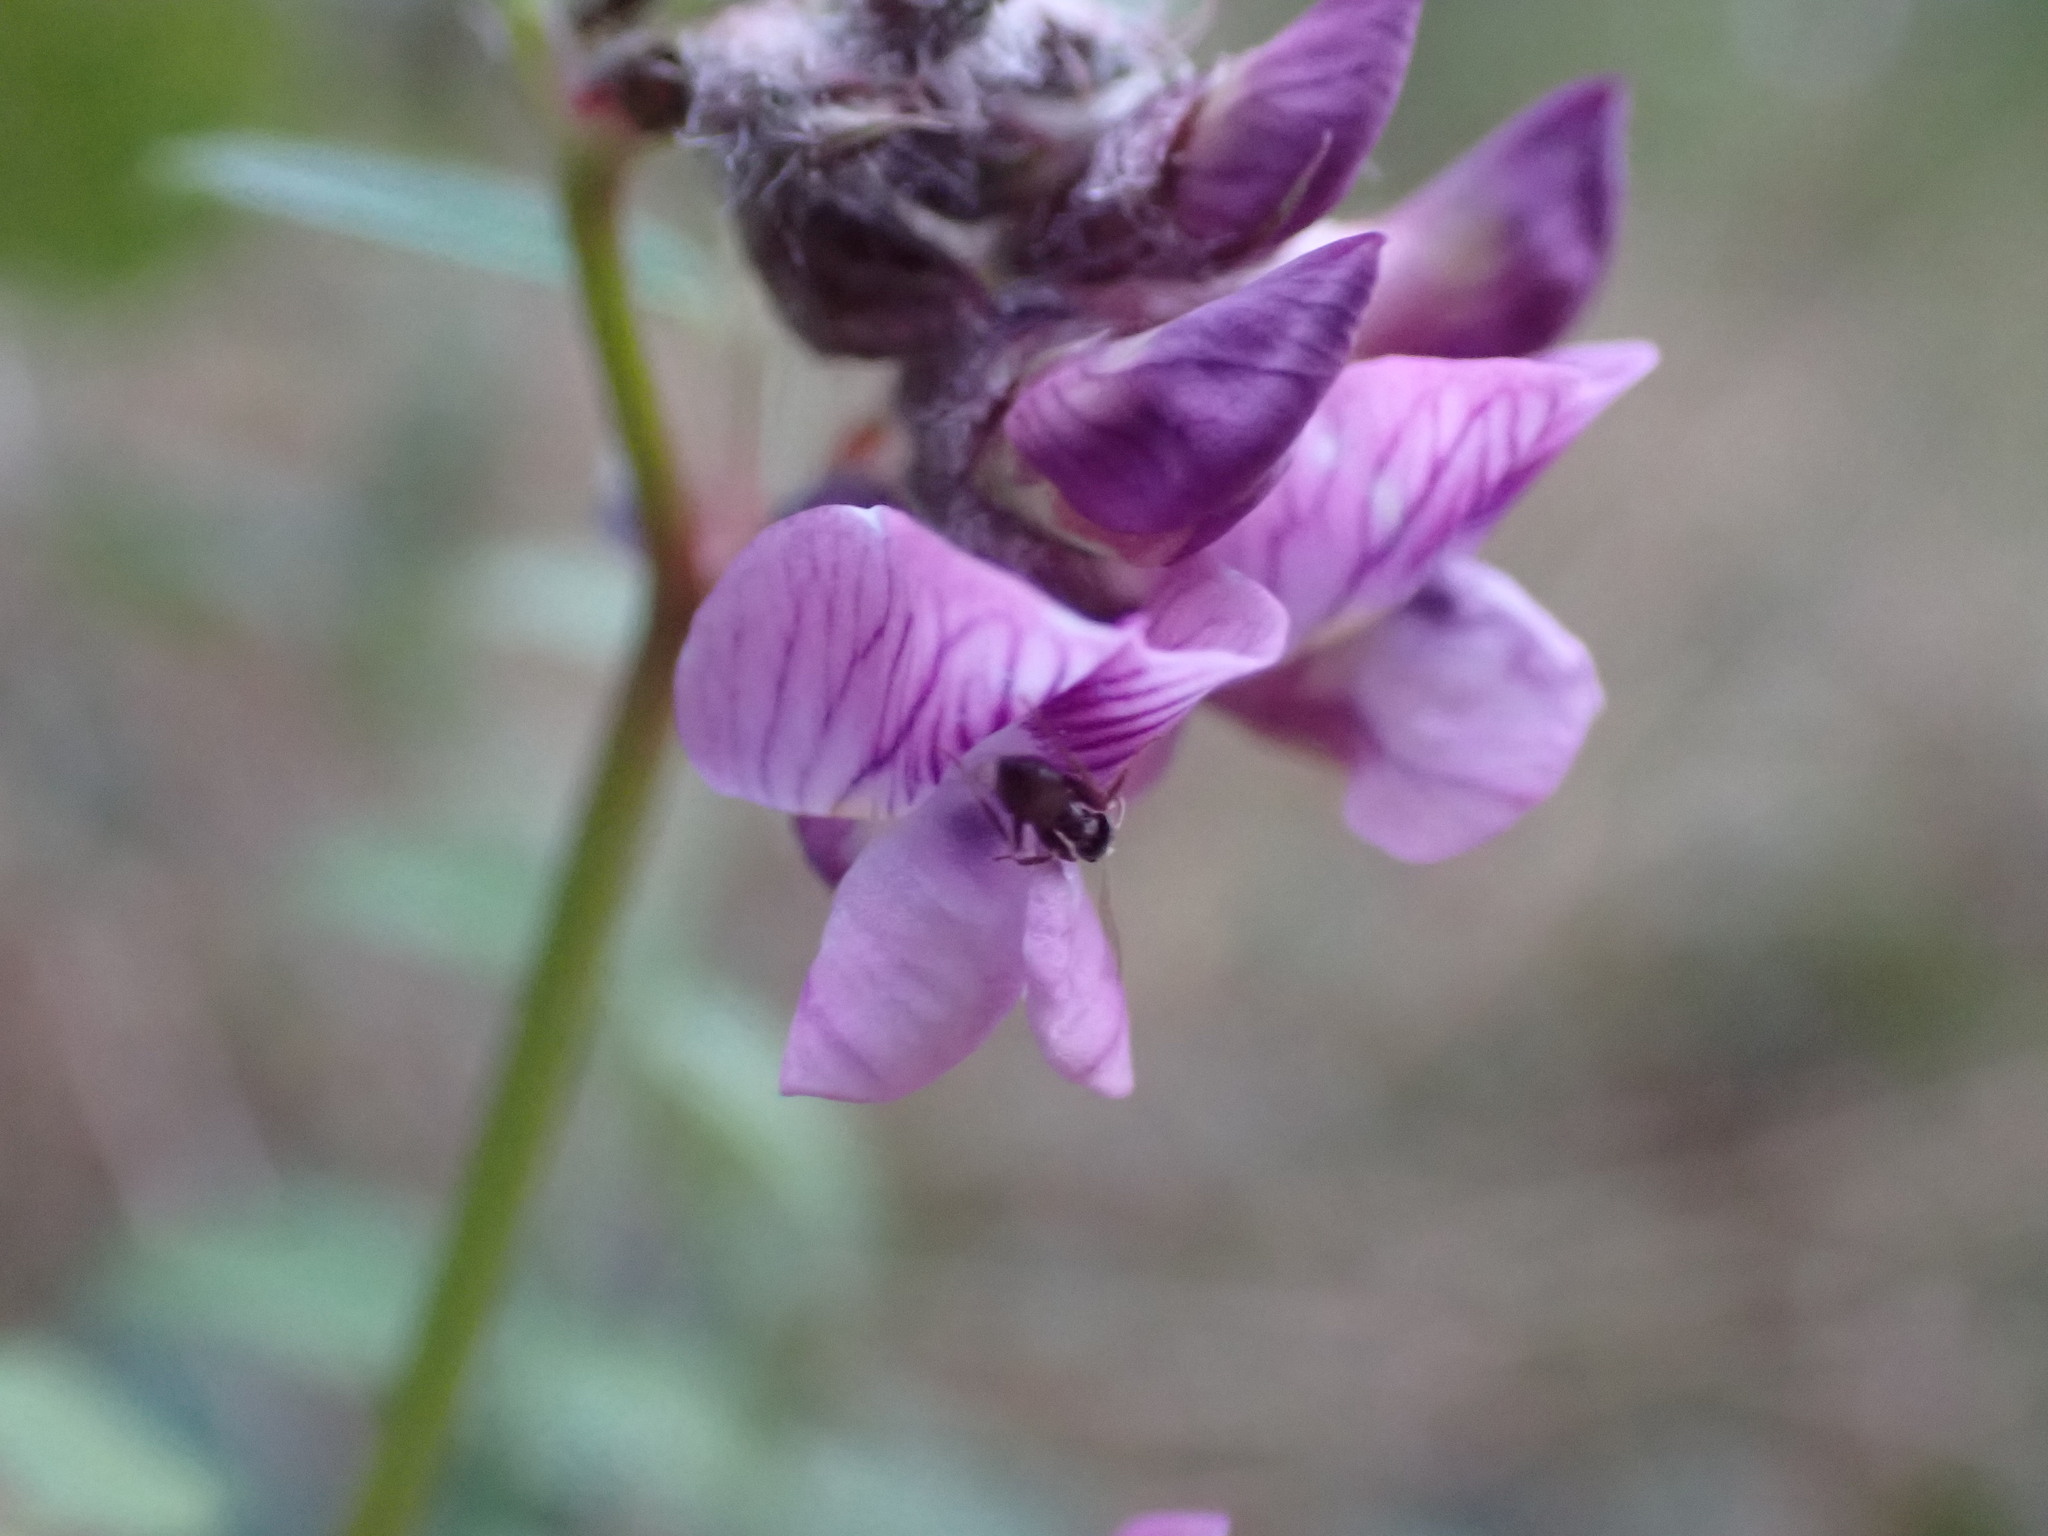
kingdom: Plantae
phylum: Tracheophyta
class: Magnoliopsida
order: Fabales
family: Fabaceae
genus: Vicia
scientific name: Vicia sepium
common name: Bush vetch
